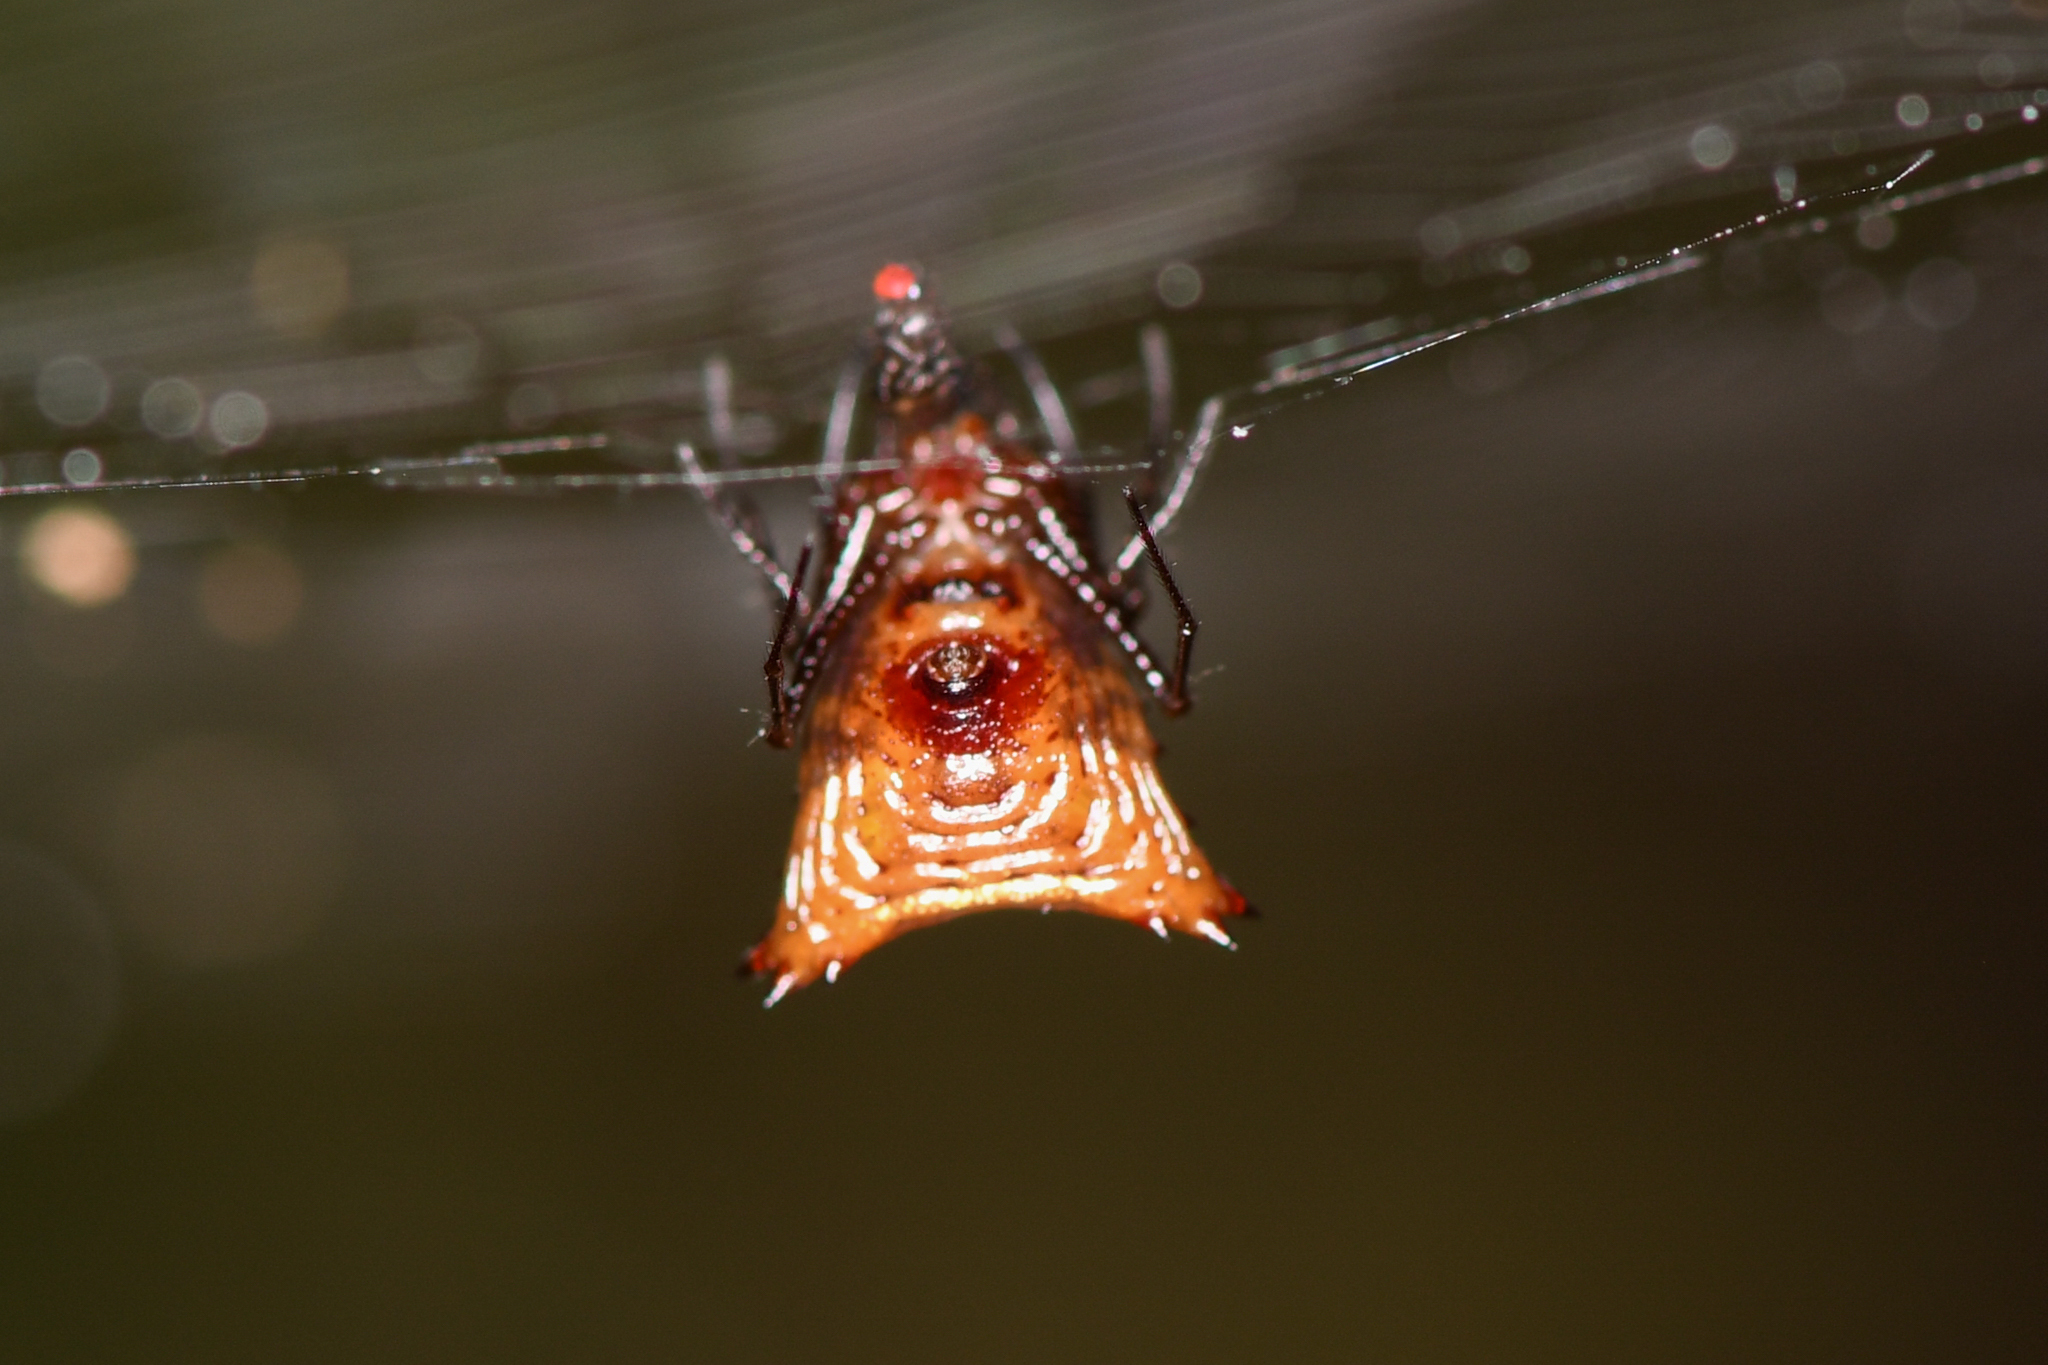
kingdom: Animalia
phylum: Arthropoda
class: Arachnida
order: Araneae
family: Araneidae
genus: Micrathena
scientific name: Micrathena molesta
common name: Orb weavers
